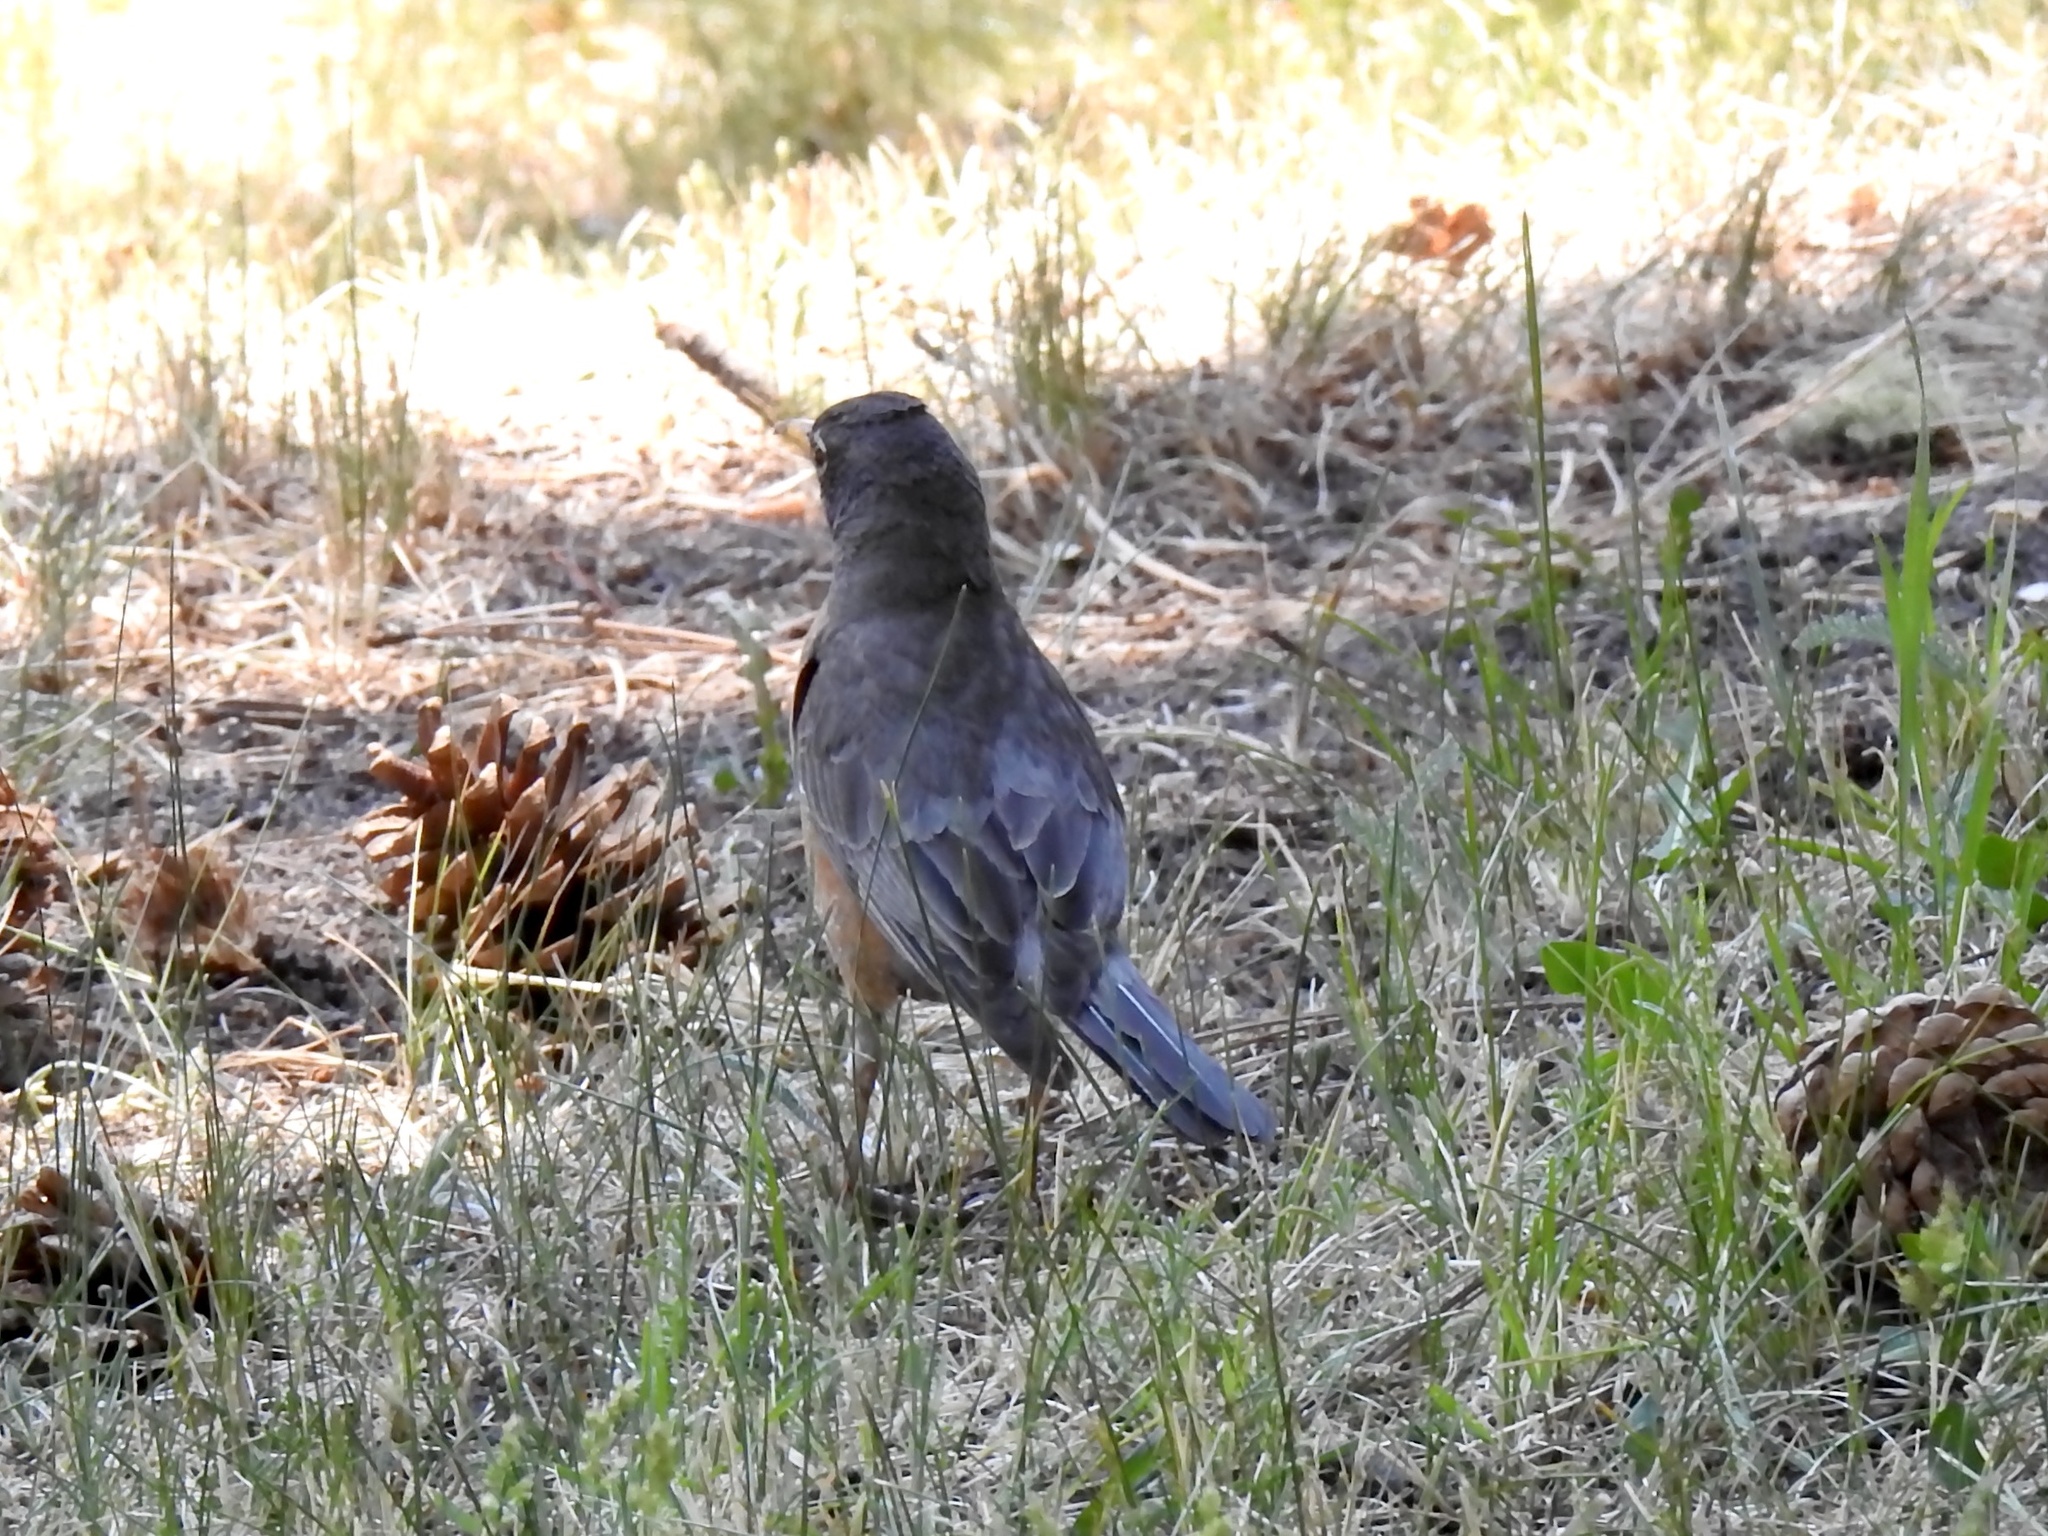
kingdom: Animalia
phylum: Chordata
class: Aves
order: Passeriformes
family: Turdidae
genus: Turdus
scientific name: Turdus migratorius
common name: American robin
